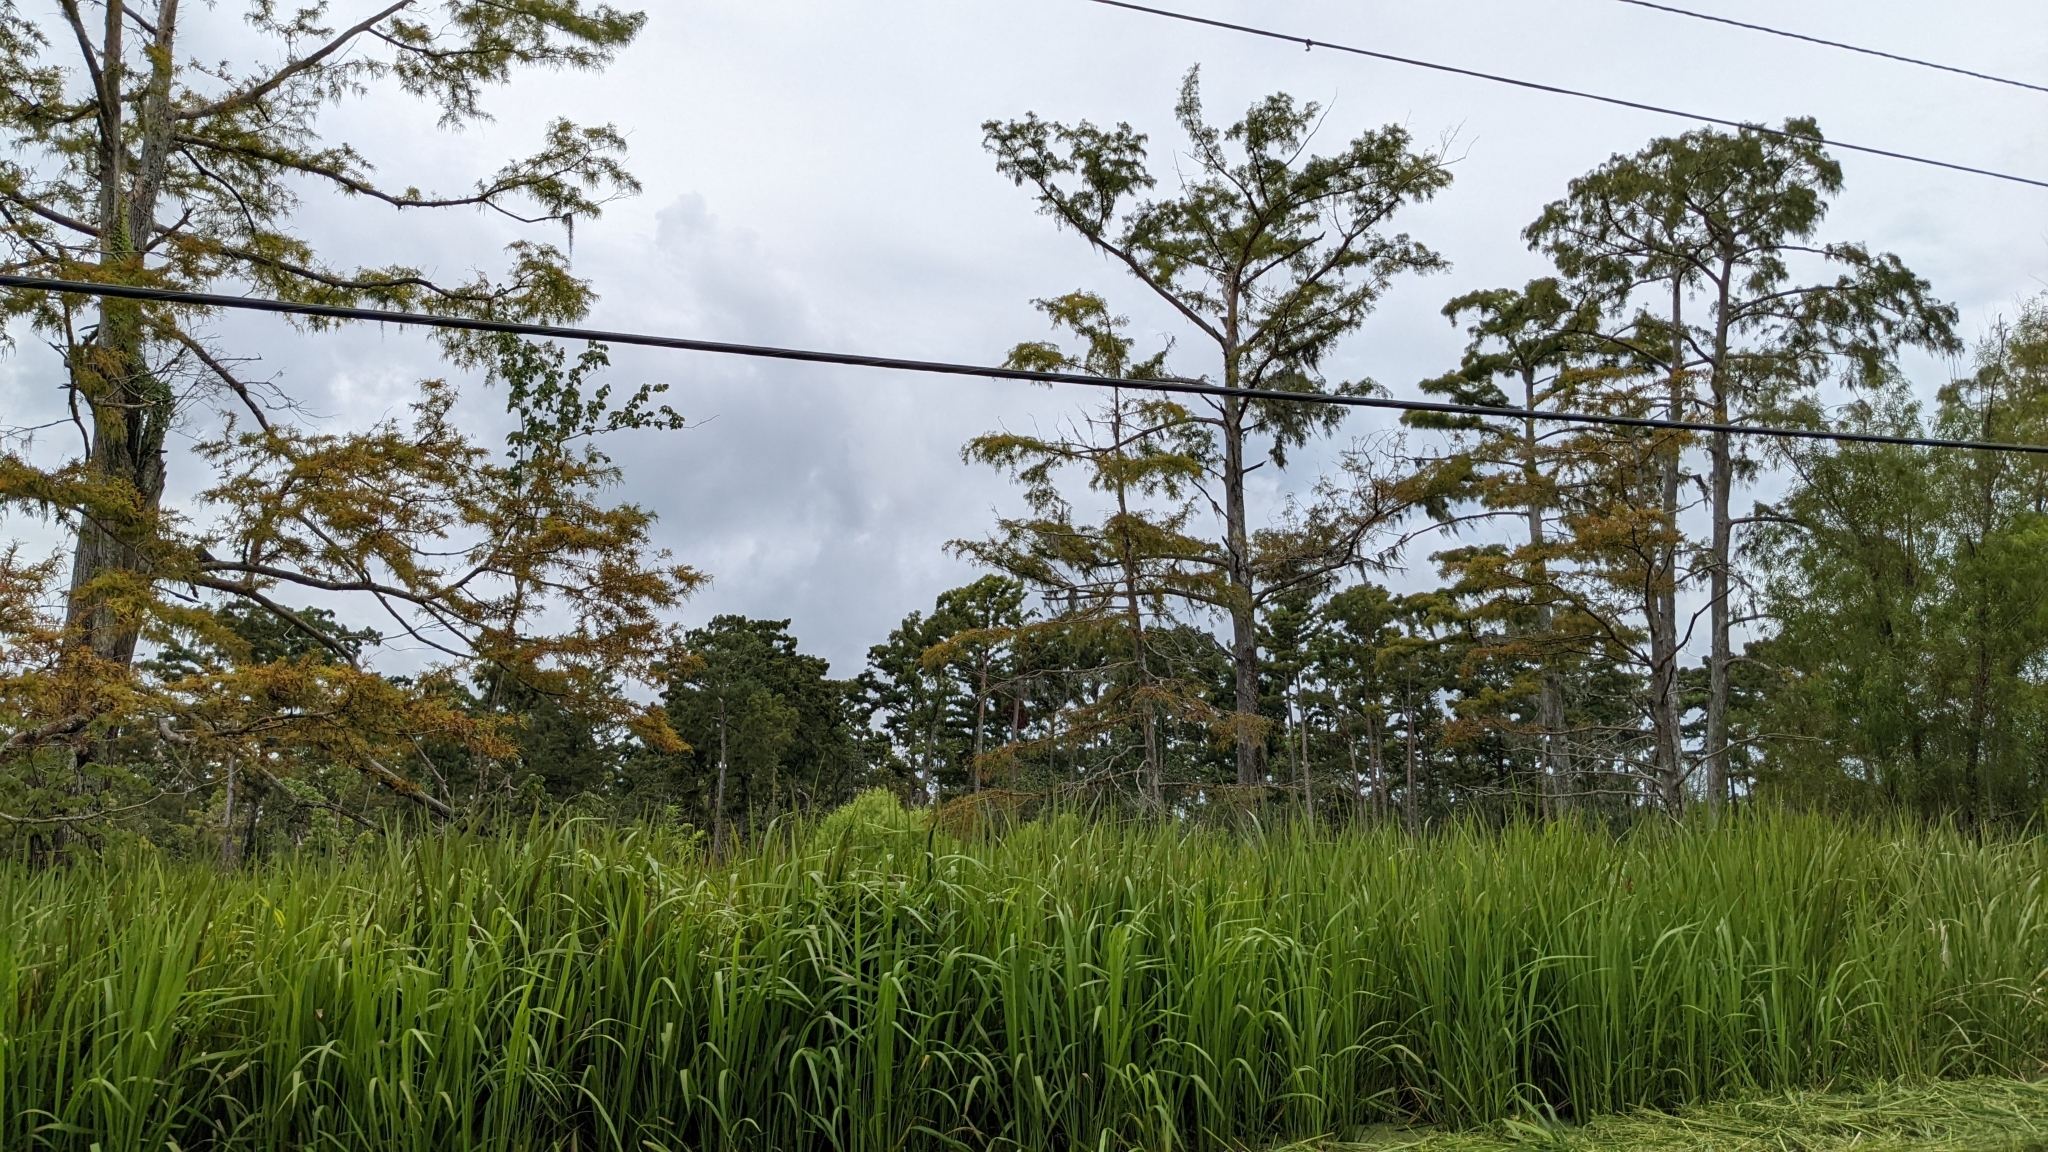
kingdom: Plantae
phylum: Tracheophyta
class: Pinopsida
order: Pinales
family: Cupressaceae
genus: Taxodium
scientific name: Taxodium distichum
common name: Bald cypress
